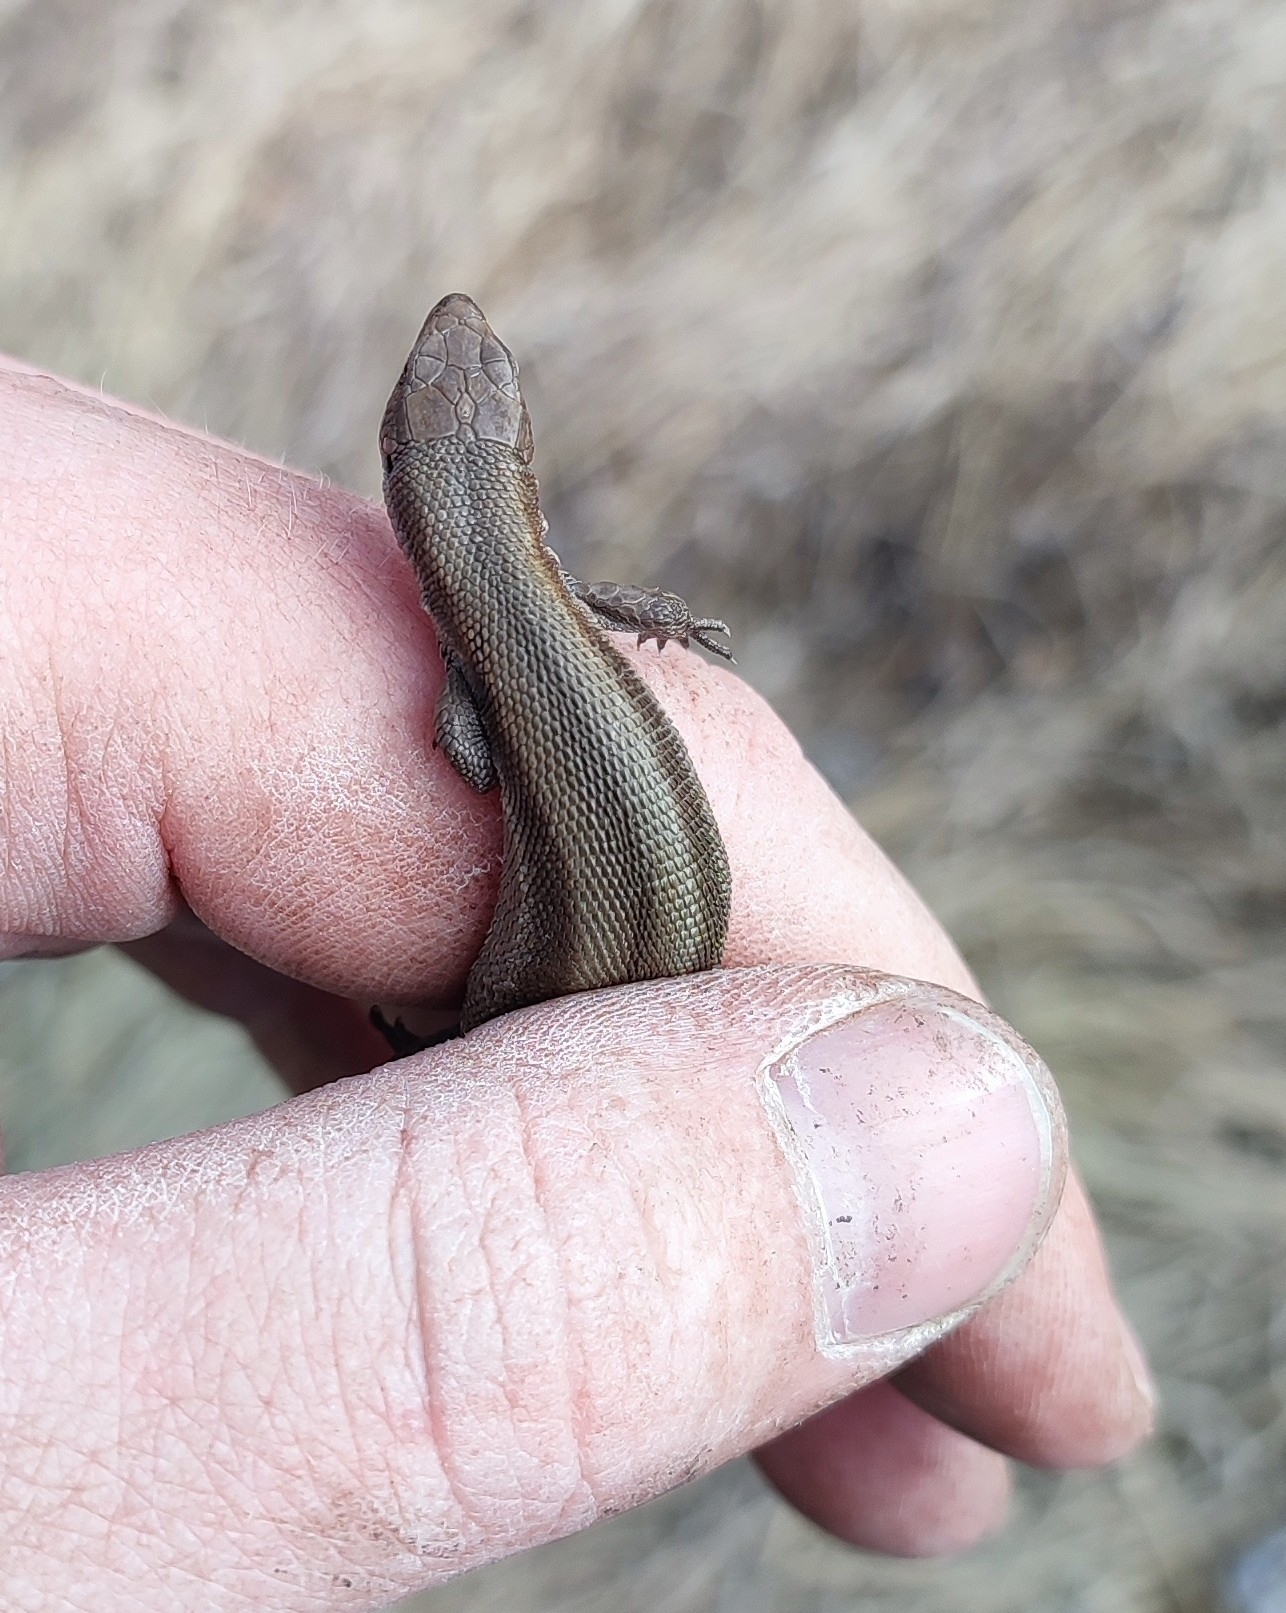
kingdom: Animalia
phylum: Chordata
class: Squamata
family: Lacertidae
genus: Zootoca
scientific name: Zootoca vivipara
